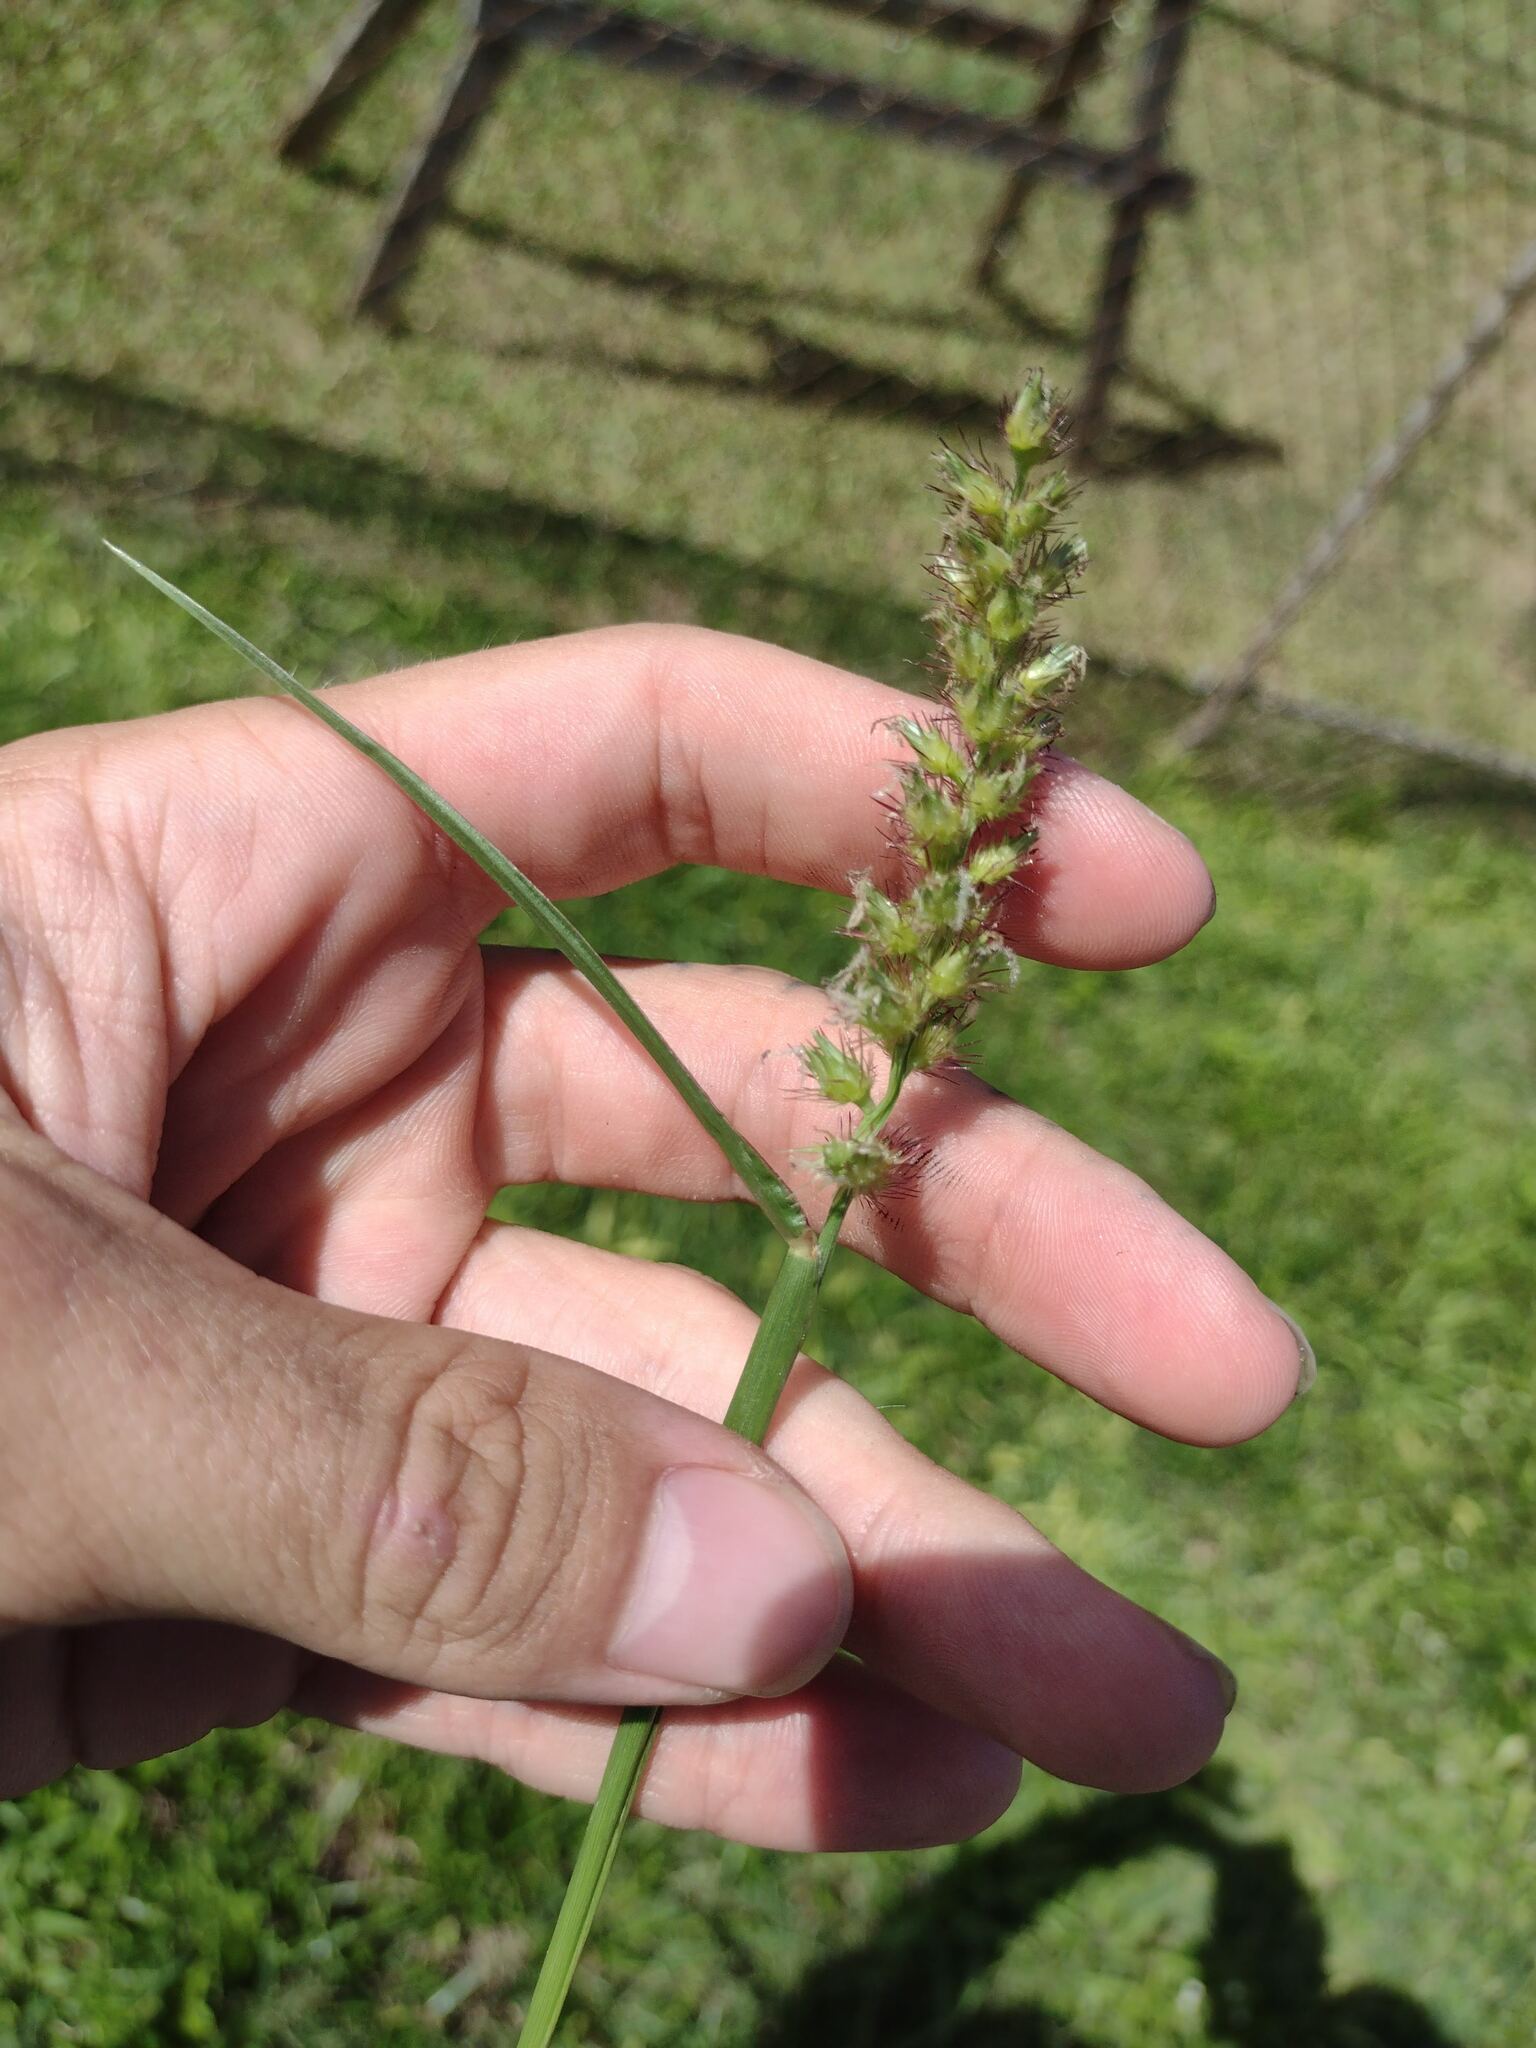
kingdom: Plantae
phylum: Tracheophyta
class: Liliopsida
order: Poales
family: Poaceae
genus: Cenchrus
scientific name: Cenchrus echinatus
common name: Southern sandbur
